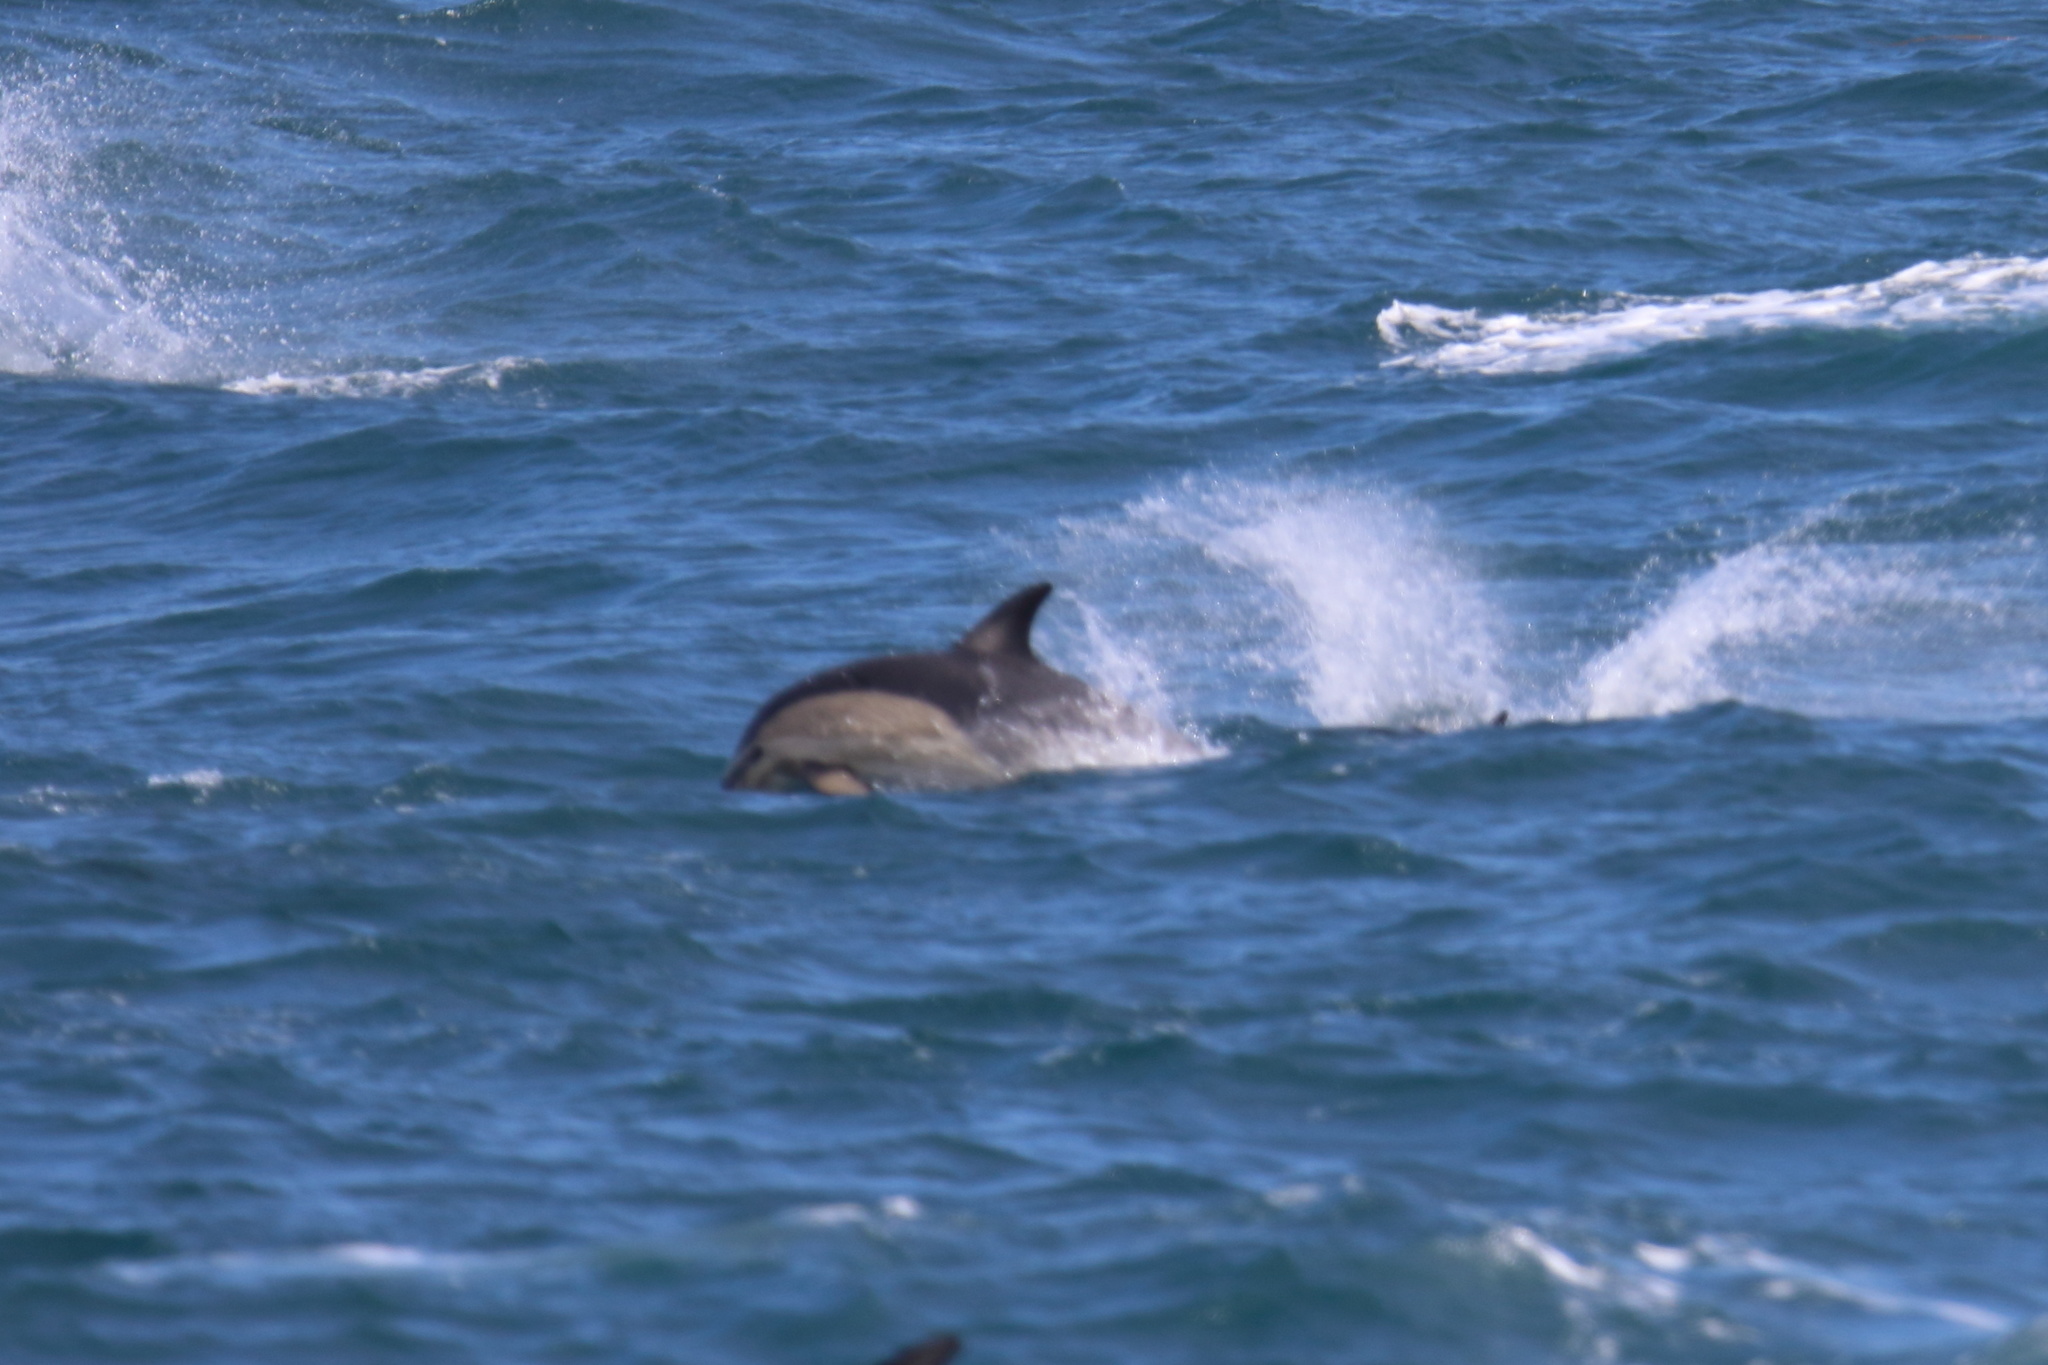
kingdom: Animalia
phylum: Chordata
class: Mammalia
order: Cetacea
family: Delphinidae
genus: Delphinus
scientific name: Delphinus delphis
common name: Common dolphin
